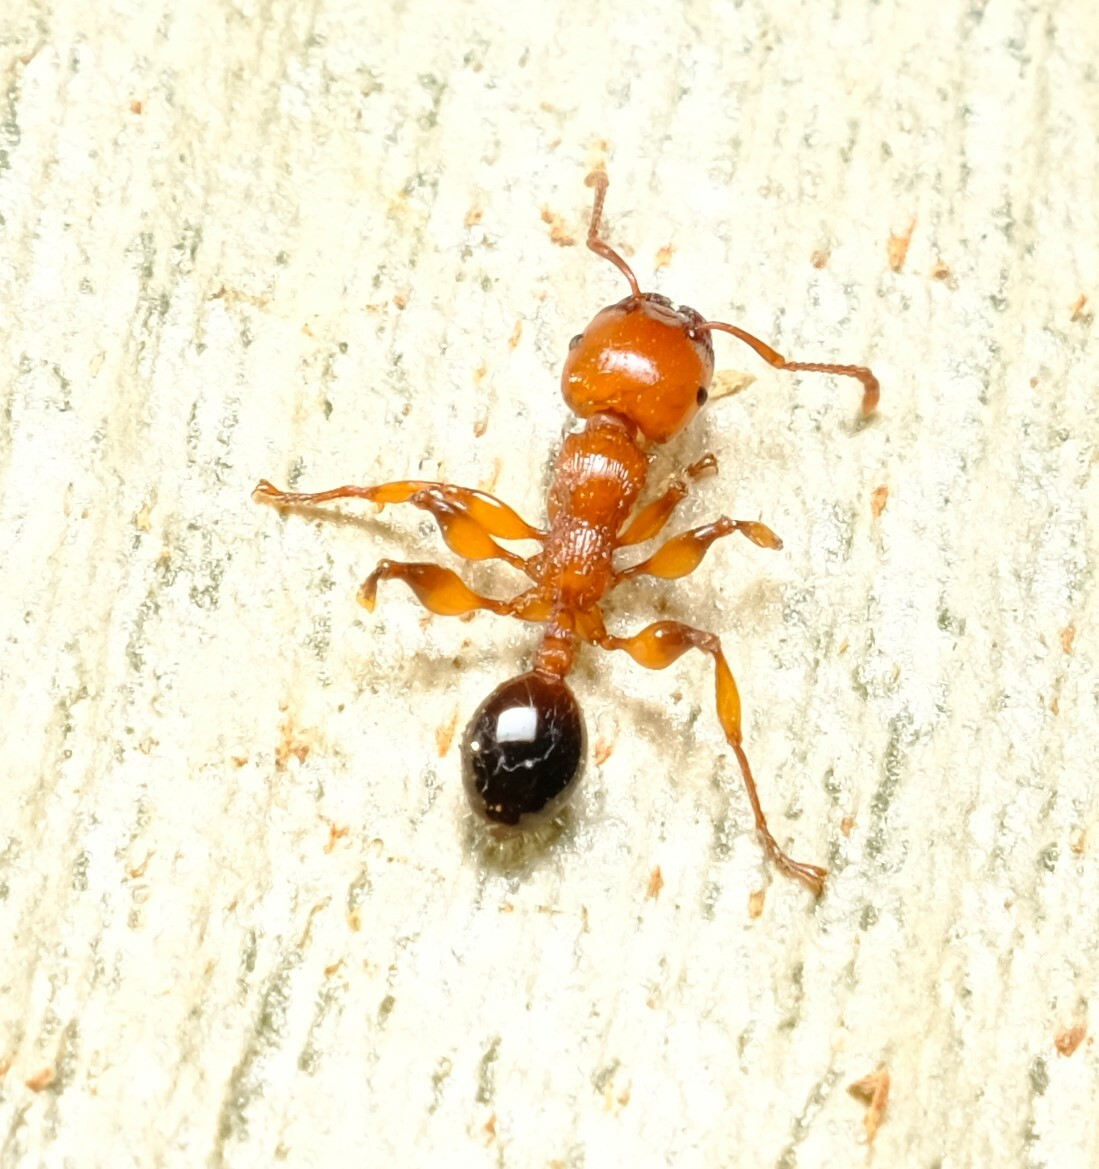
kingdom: Animalia
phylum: Arthropoda
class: Insecta
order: Hymenoptera
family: Formicidae
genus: Podomyrma
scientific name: Podomyrma gratiosa
